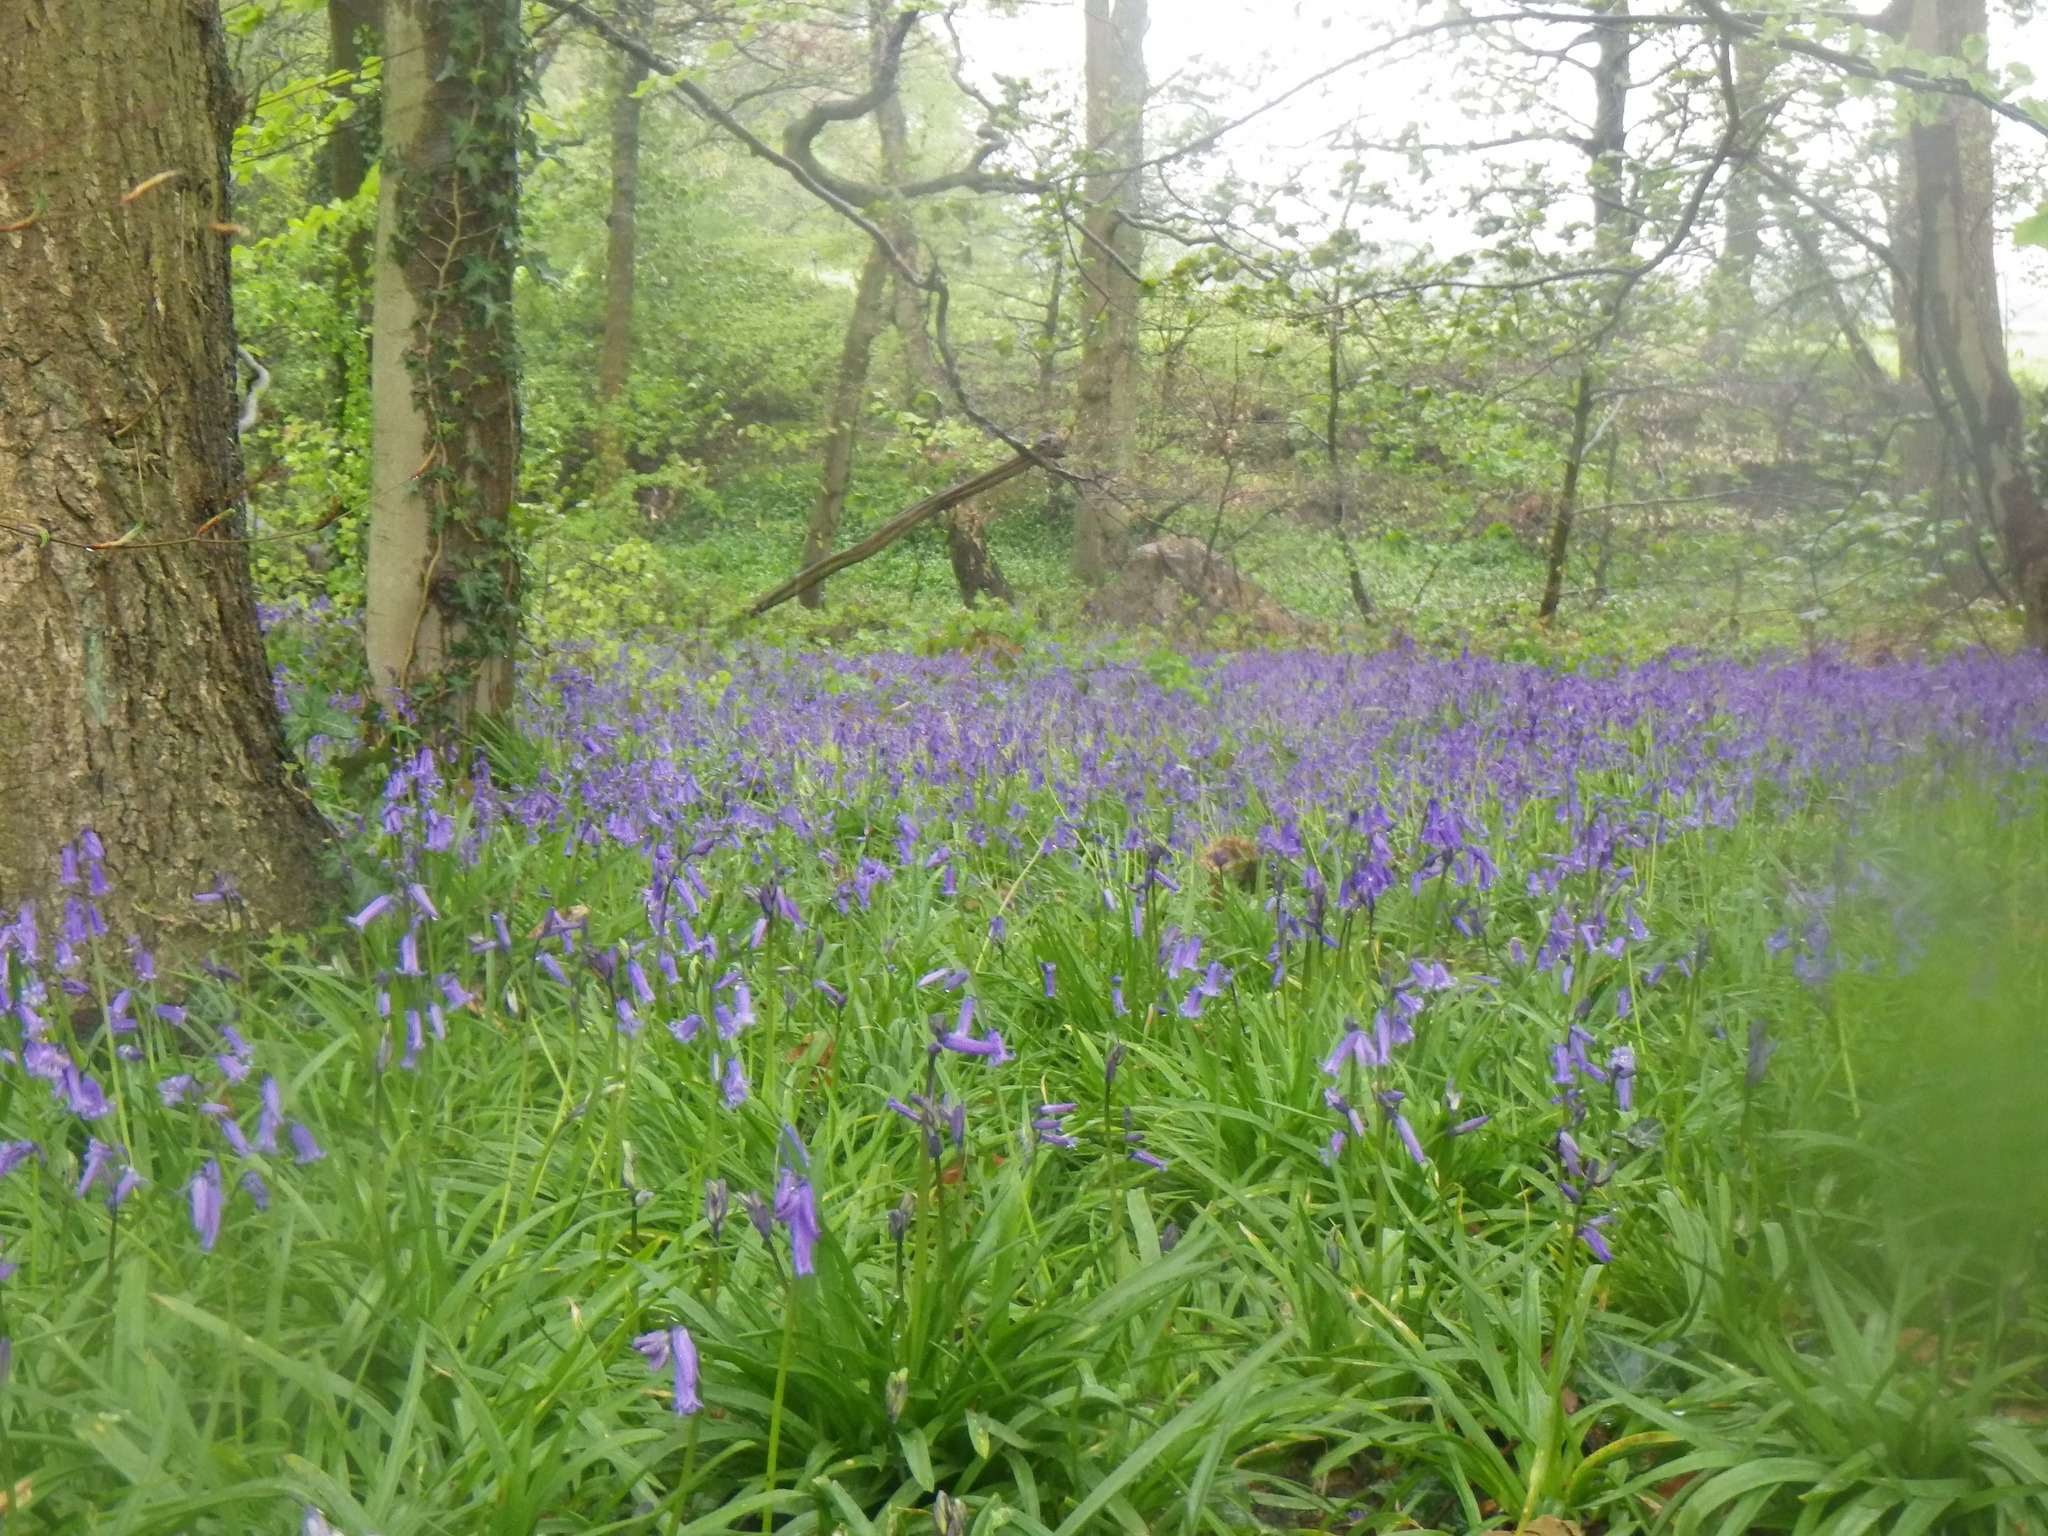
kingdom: Plantae
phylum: Tracheophyta
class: Liliopsida
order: Asparagales
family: Asparagaceae
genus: Hyacinthoides
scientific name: Hyacinthoides non-scripta
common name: Bluebell
